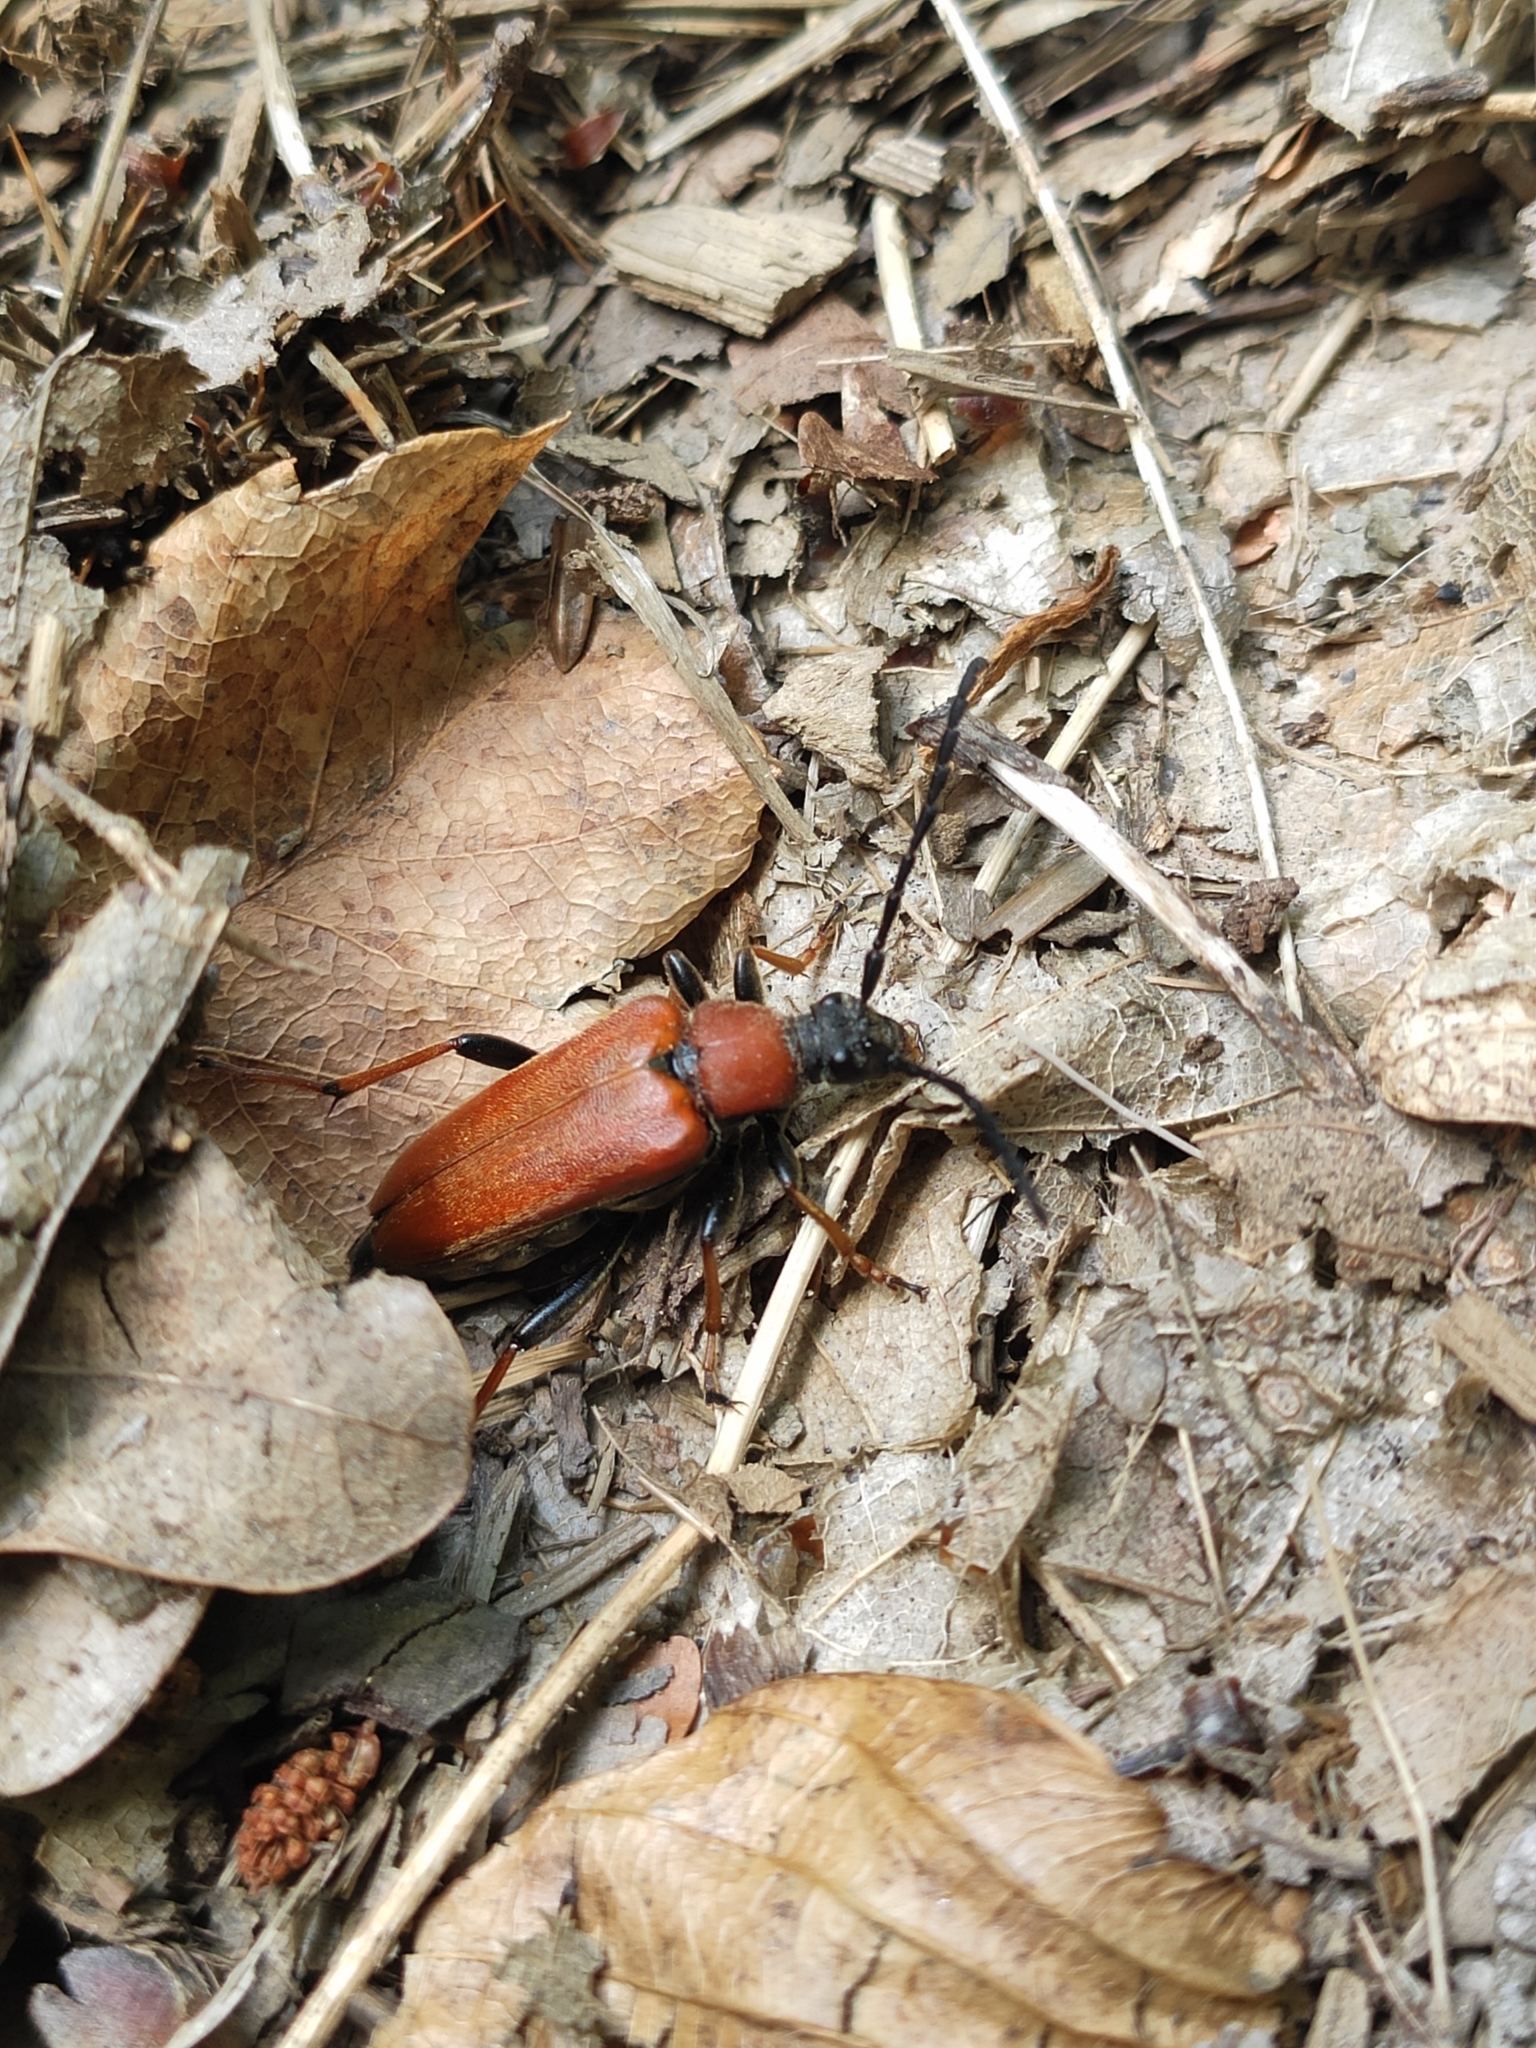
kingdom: Animalia
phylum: Arthropoda
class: Insecta
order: Coleoptera
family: Cerambycidae
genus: Stictoleptura
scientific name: Stictoleptura rubra
